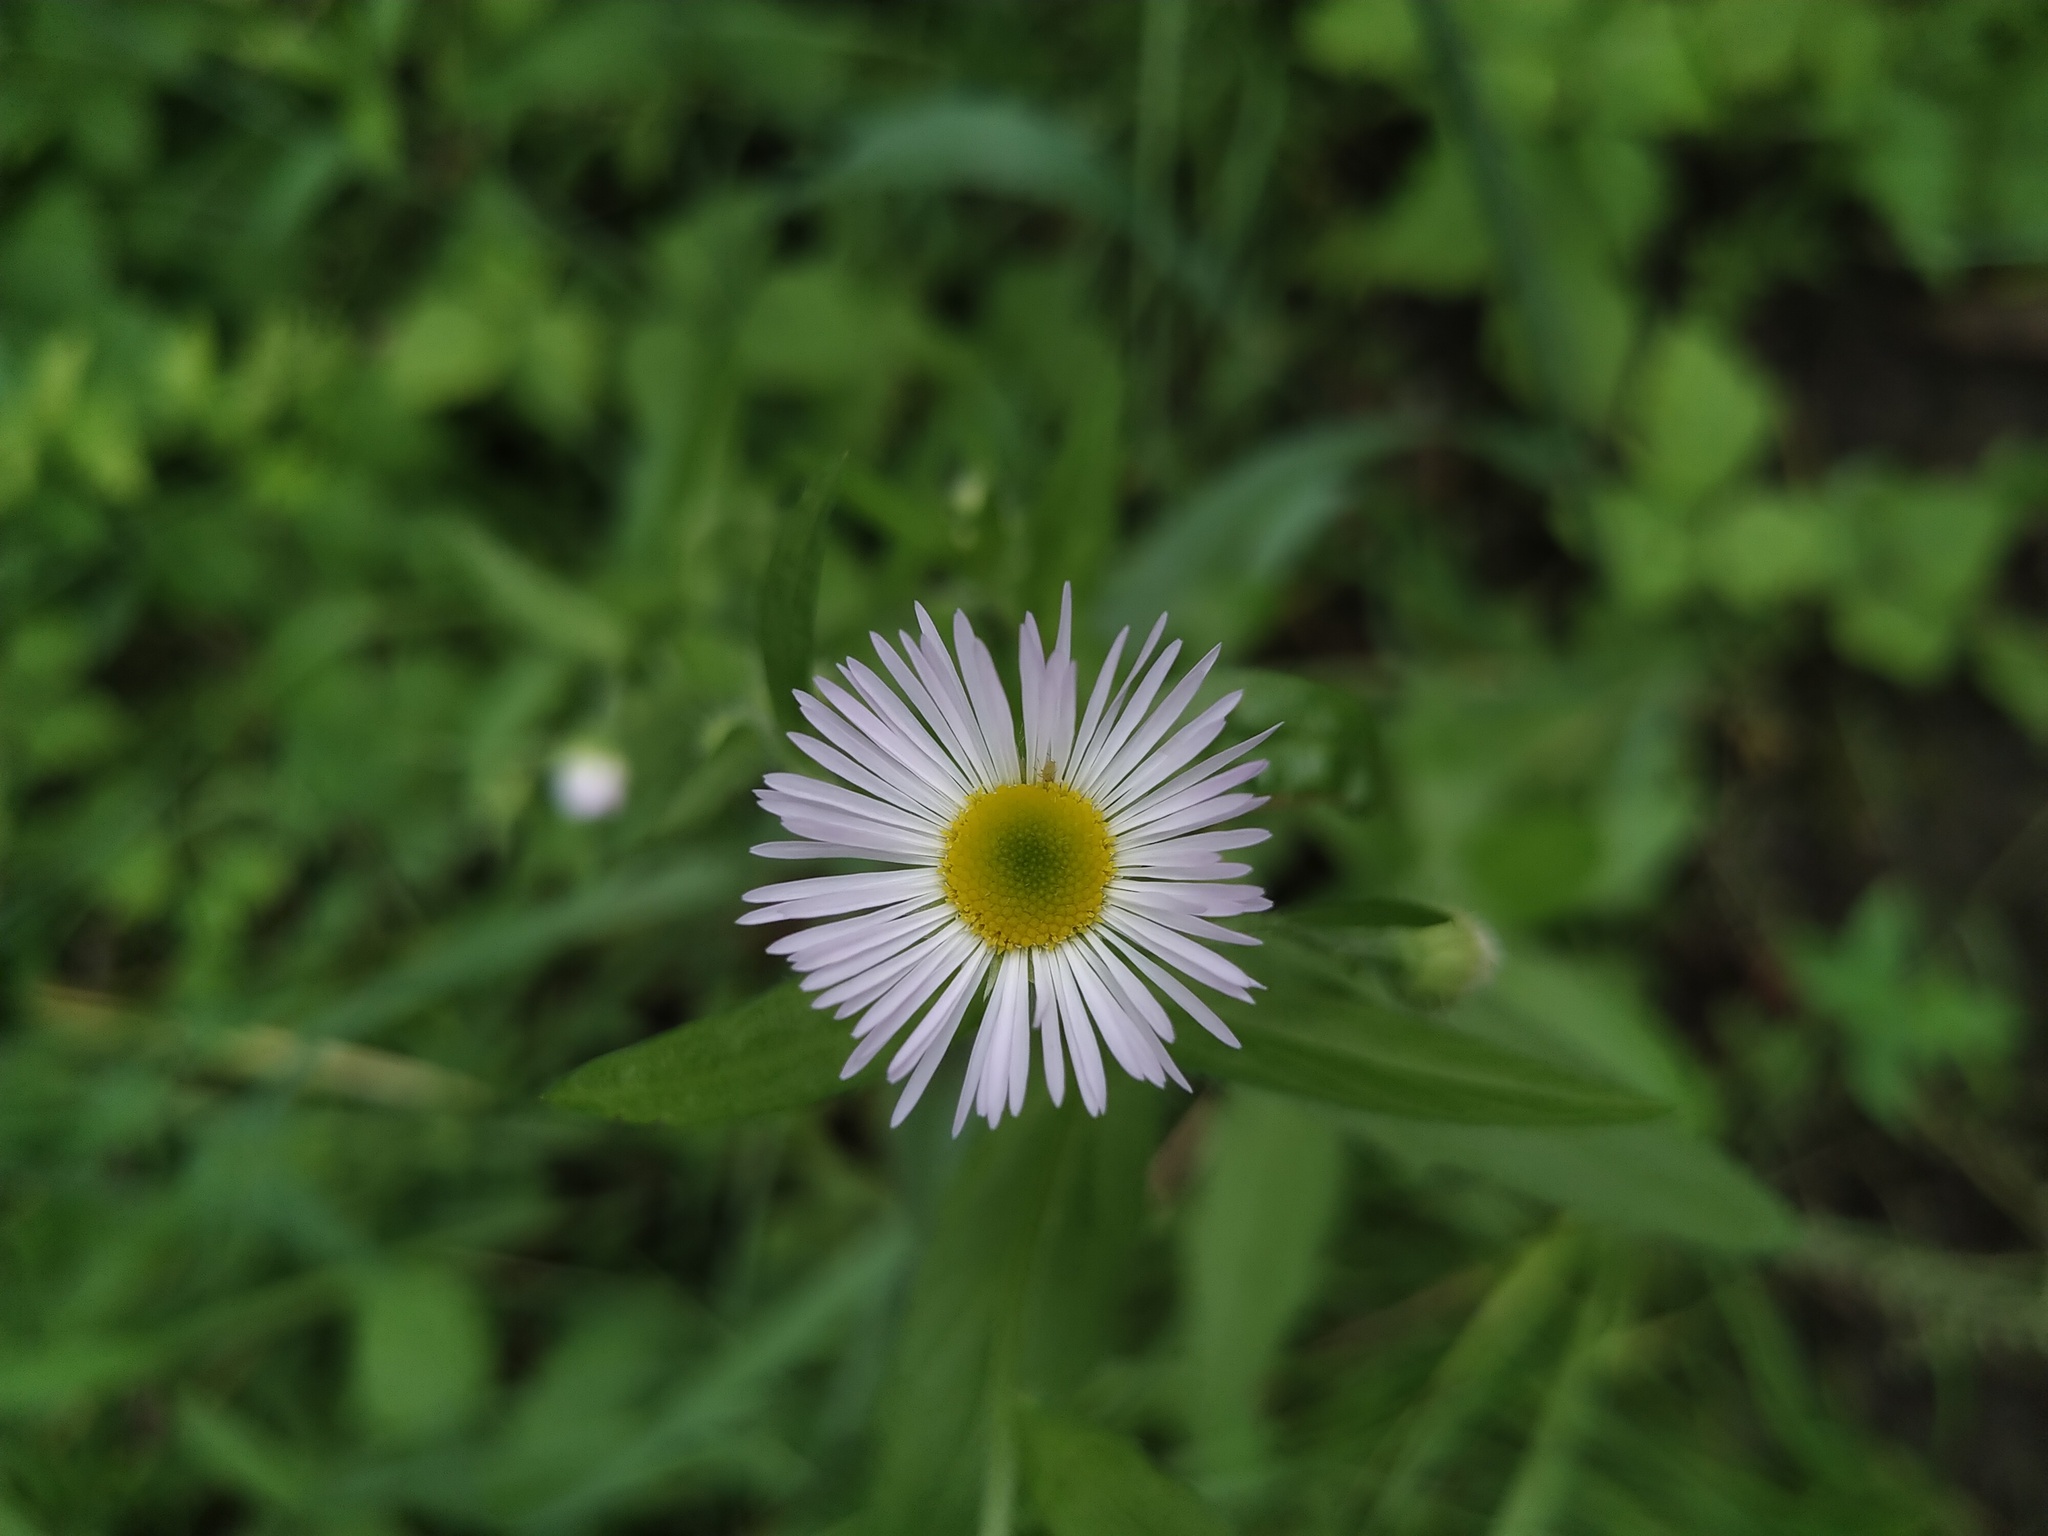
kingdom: Plantae
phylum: Tracheophyta
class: Magnoliopsida
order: Asterales
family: Asteraceae
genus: Erigeron
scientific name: Erigeron annuus
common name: Tall fleabane
